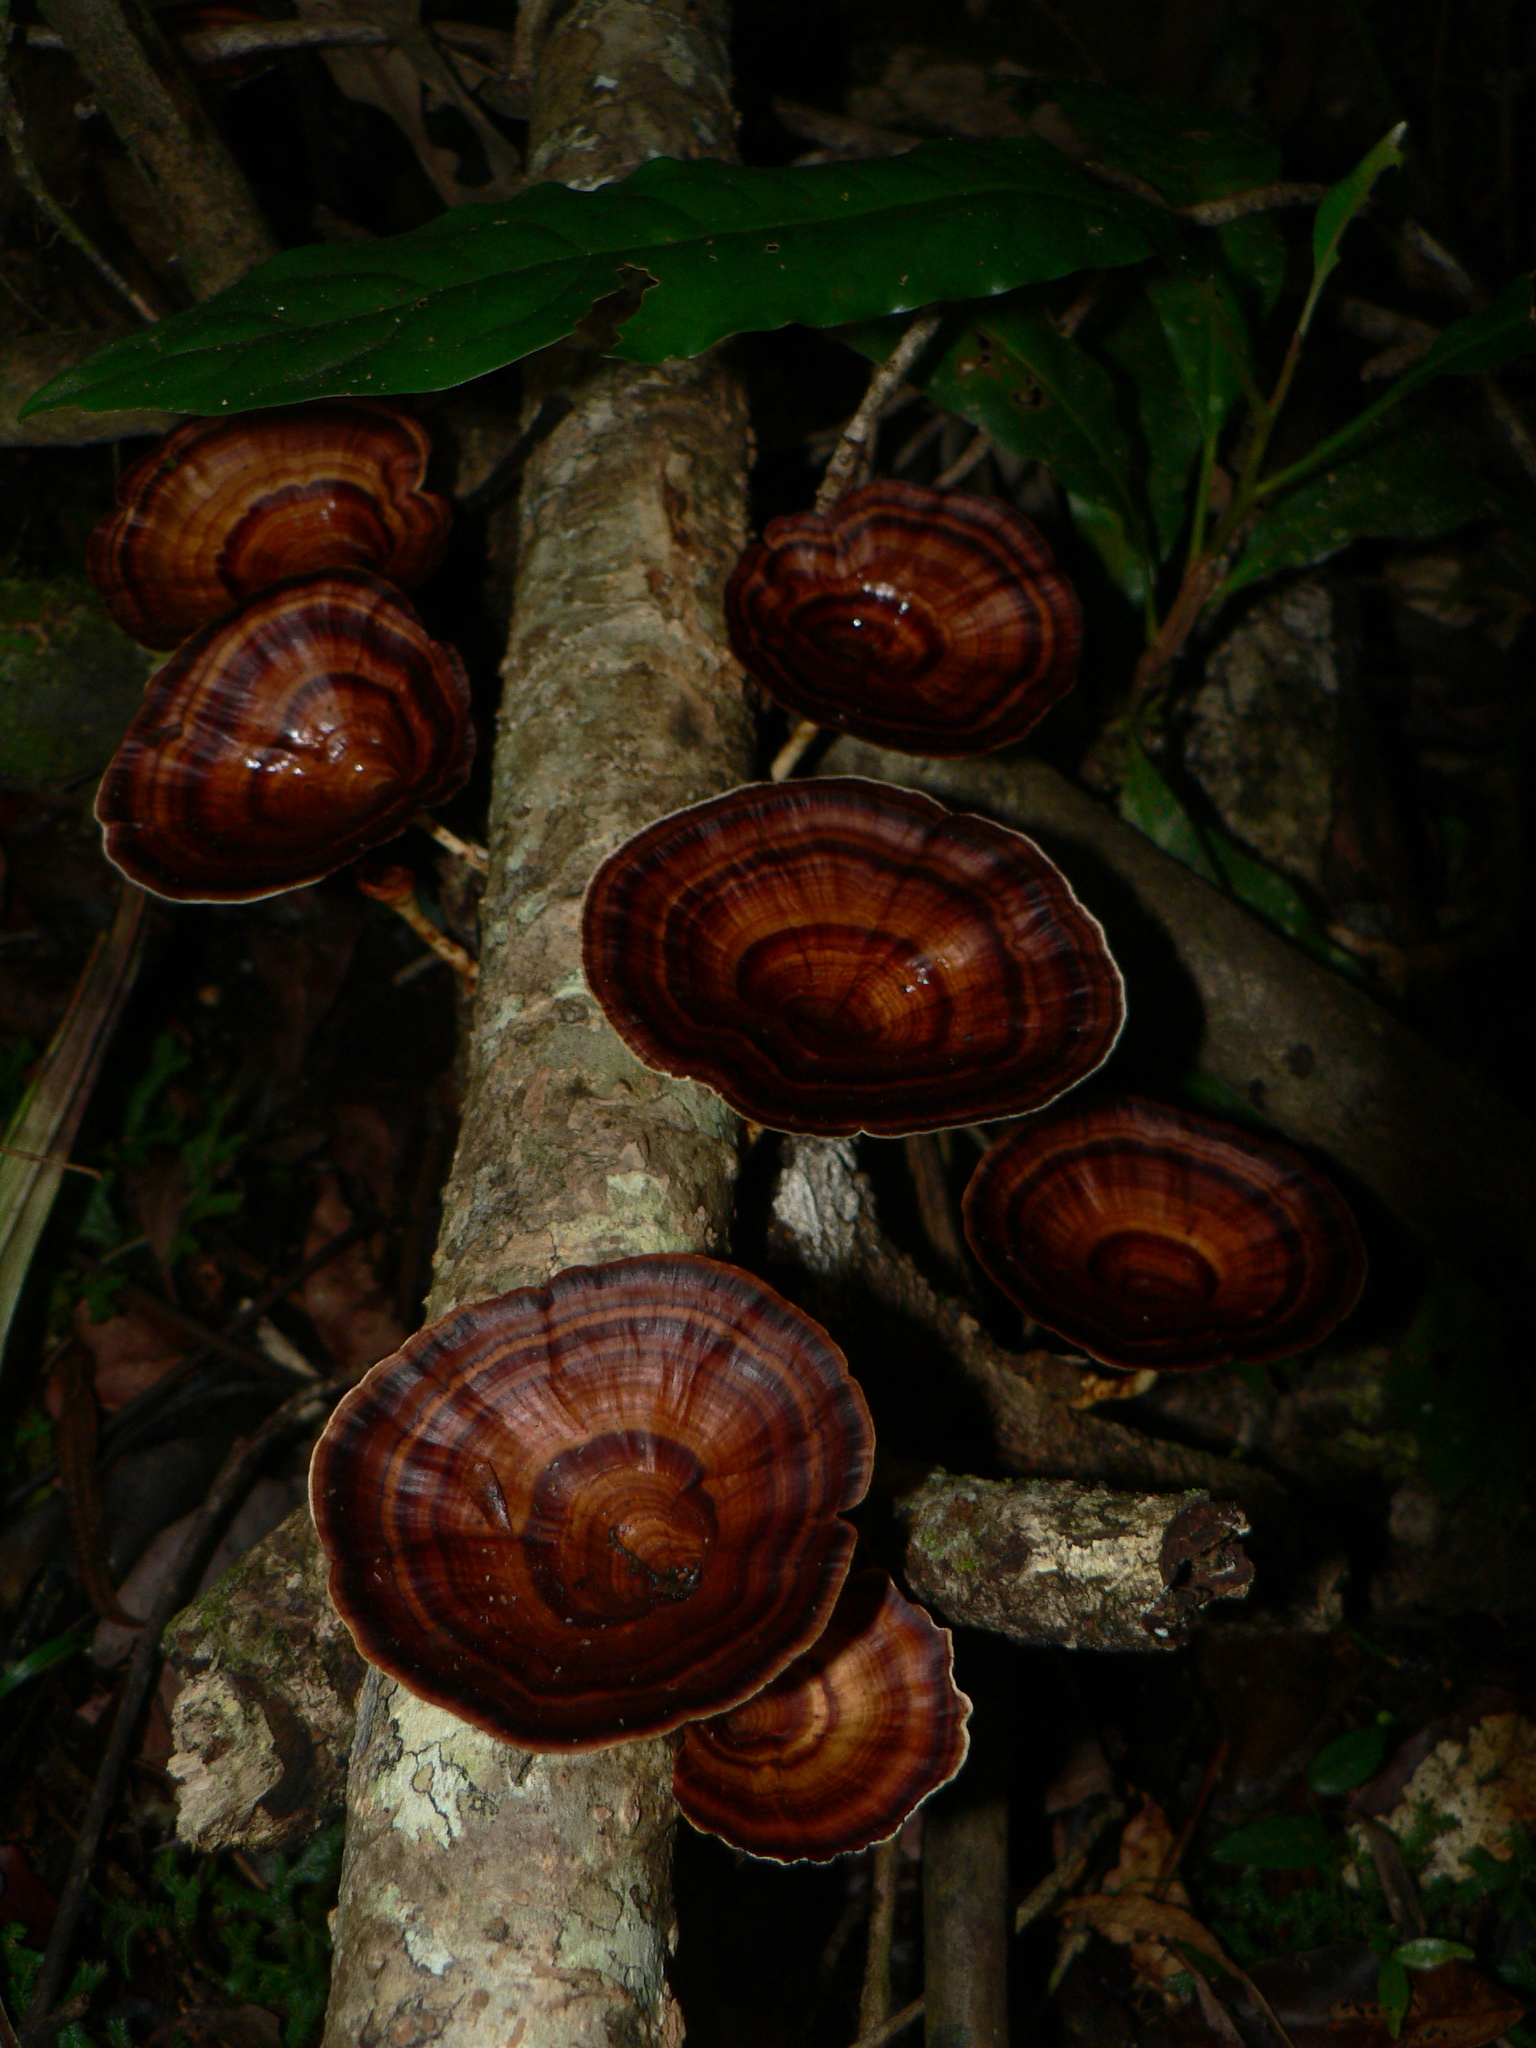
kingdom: Fungi
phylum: Basidiomycota
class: Agaricomycetes
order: Polyporales
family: Polyporaceae
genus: Microporus
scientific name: Microporus xanthopus
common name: Yellow-stemmed micropore
